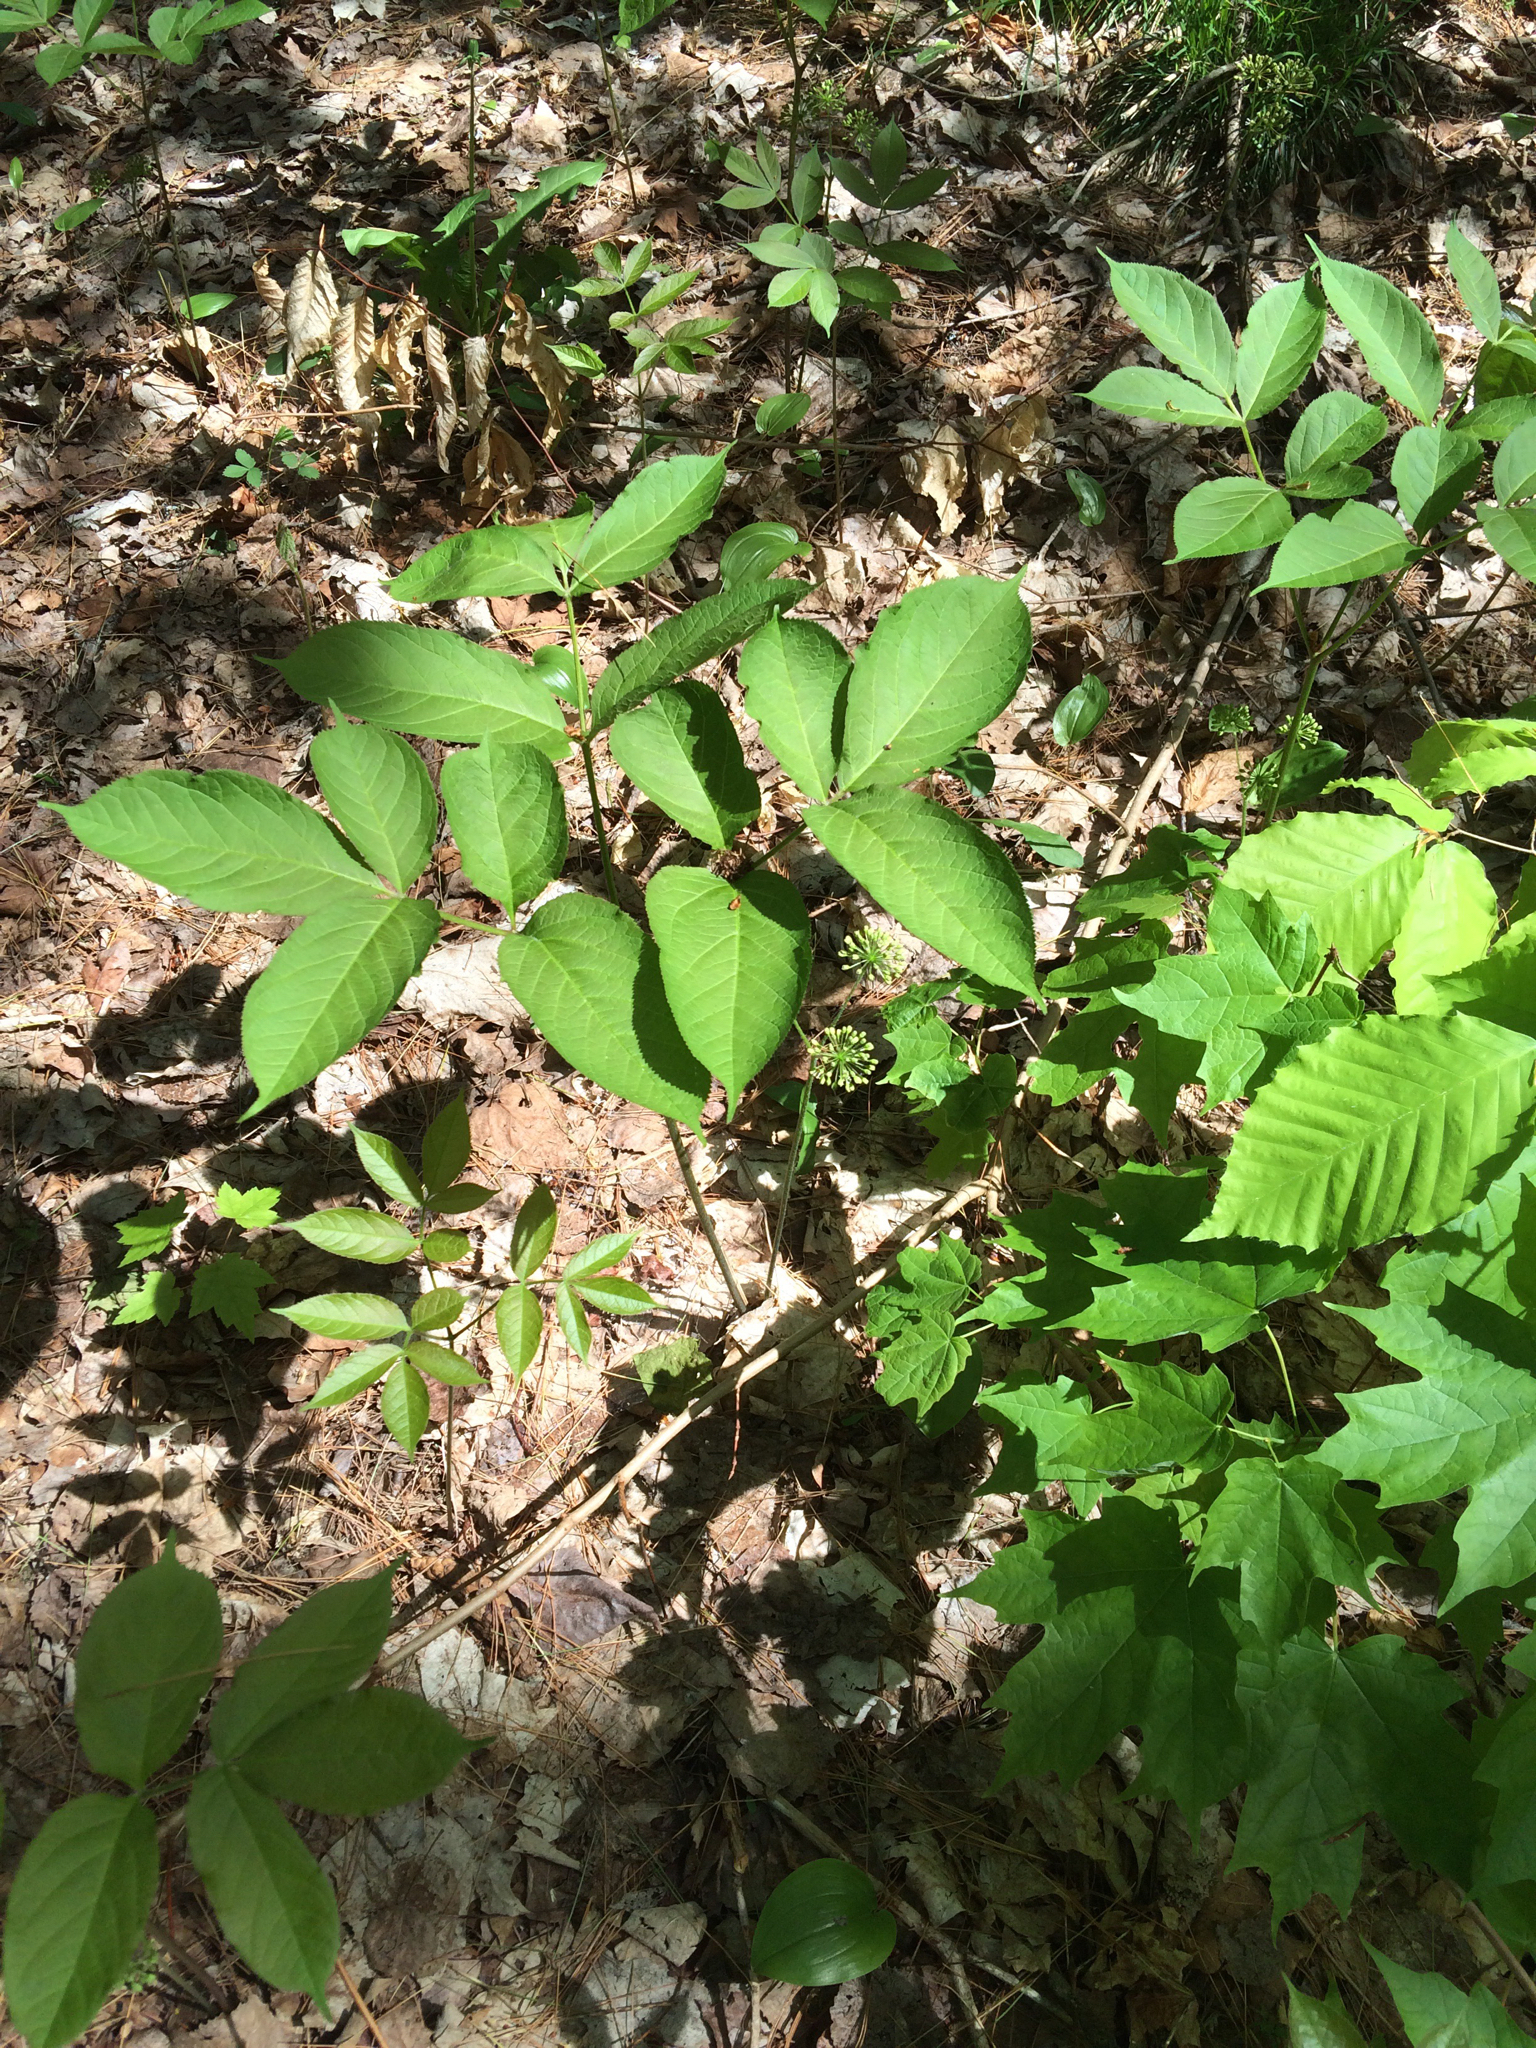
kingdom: Plantae
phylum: Tracheophyta
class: Magnoliopsida
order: Apiales
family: Araliaceae
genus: Aralia
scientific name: Aralia nudicaulis
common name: Wild sarsaparilla
